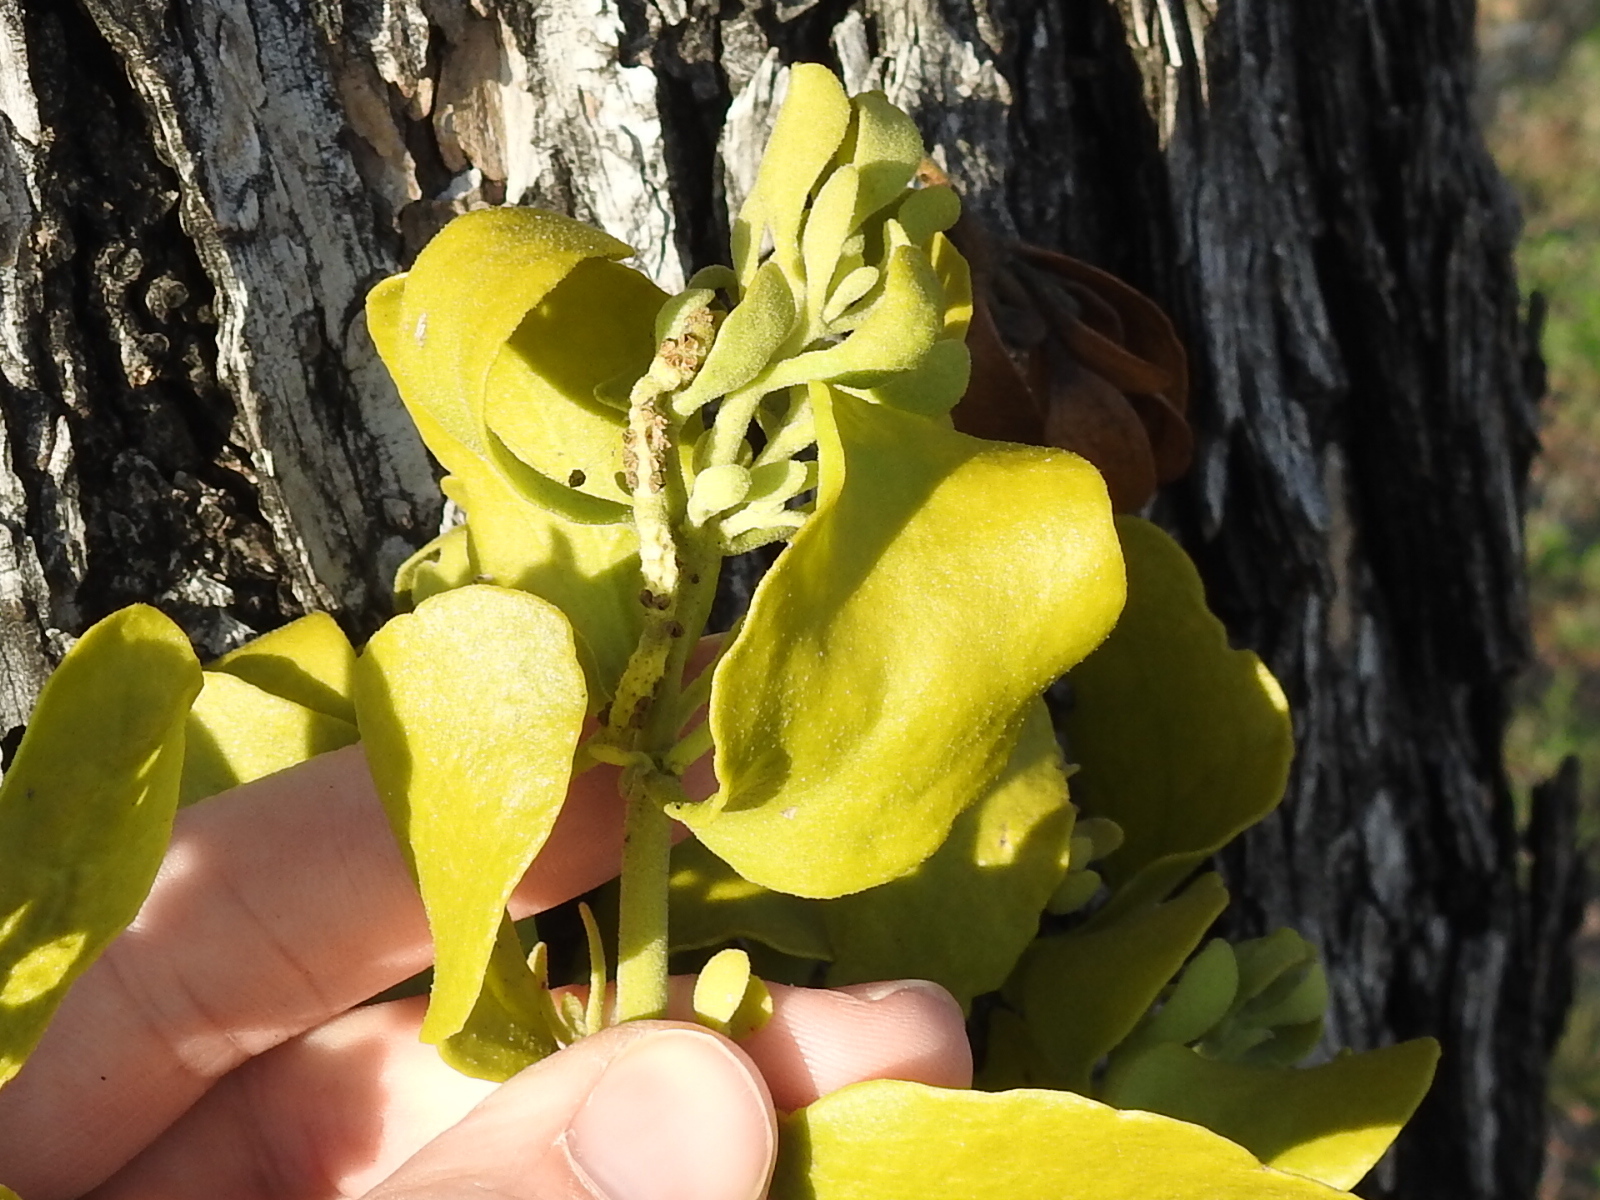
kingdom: Plantae
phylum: Tracheophyta
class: Magnoliopsida
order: Santalales
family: Viscaceae
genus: Phoradendron
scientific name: Phoradendron leucarpum
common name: Pacific mistletoe
